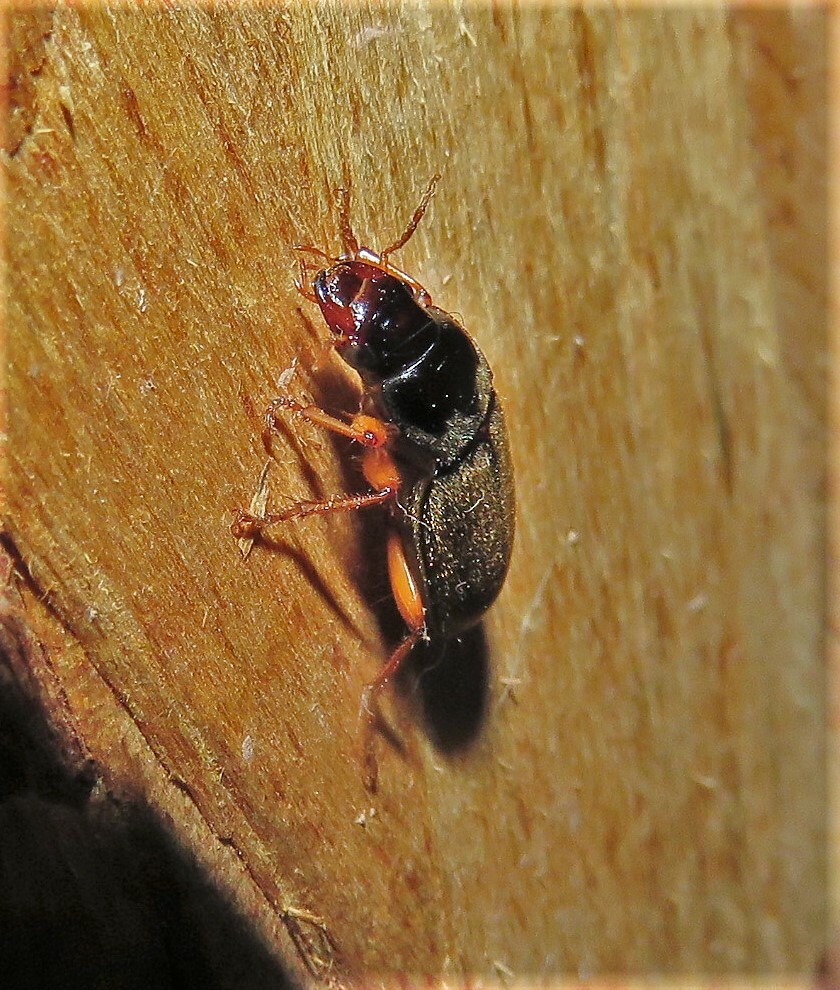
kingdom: Animalia
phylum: Arthropoda
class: Insecta
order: Coleoptera
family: Carabidae
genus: Harpalus
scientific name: Harpalus rufipes
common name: Strawberry harp ground beetle
